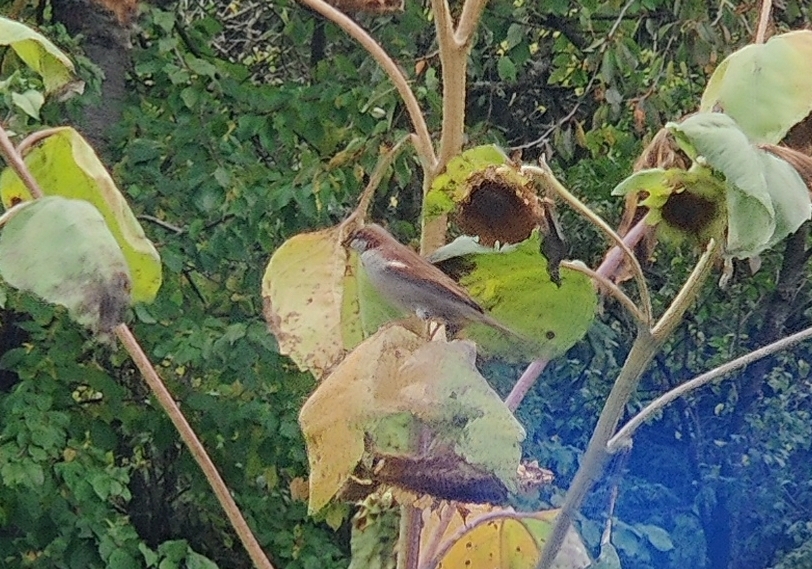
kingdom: Animalia
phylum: Chordata
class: Aves
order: Passeriformes
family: Passeridae
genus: Passer
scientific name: Passer domesticus
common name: House sparrow
